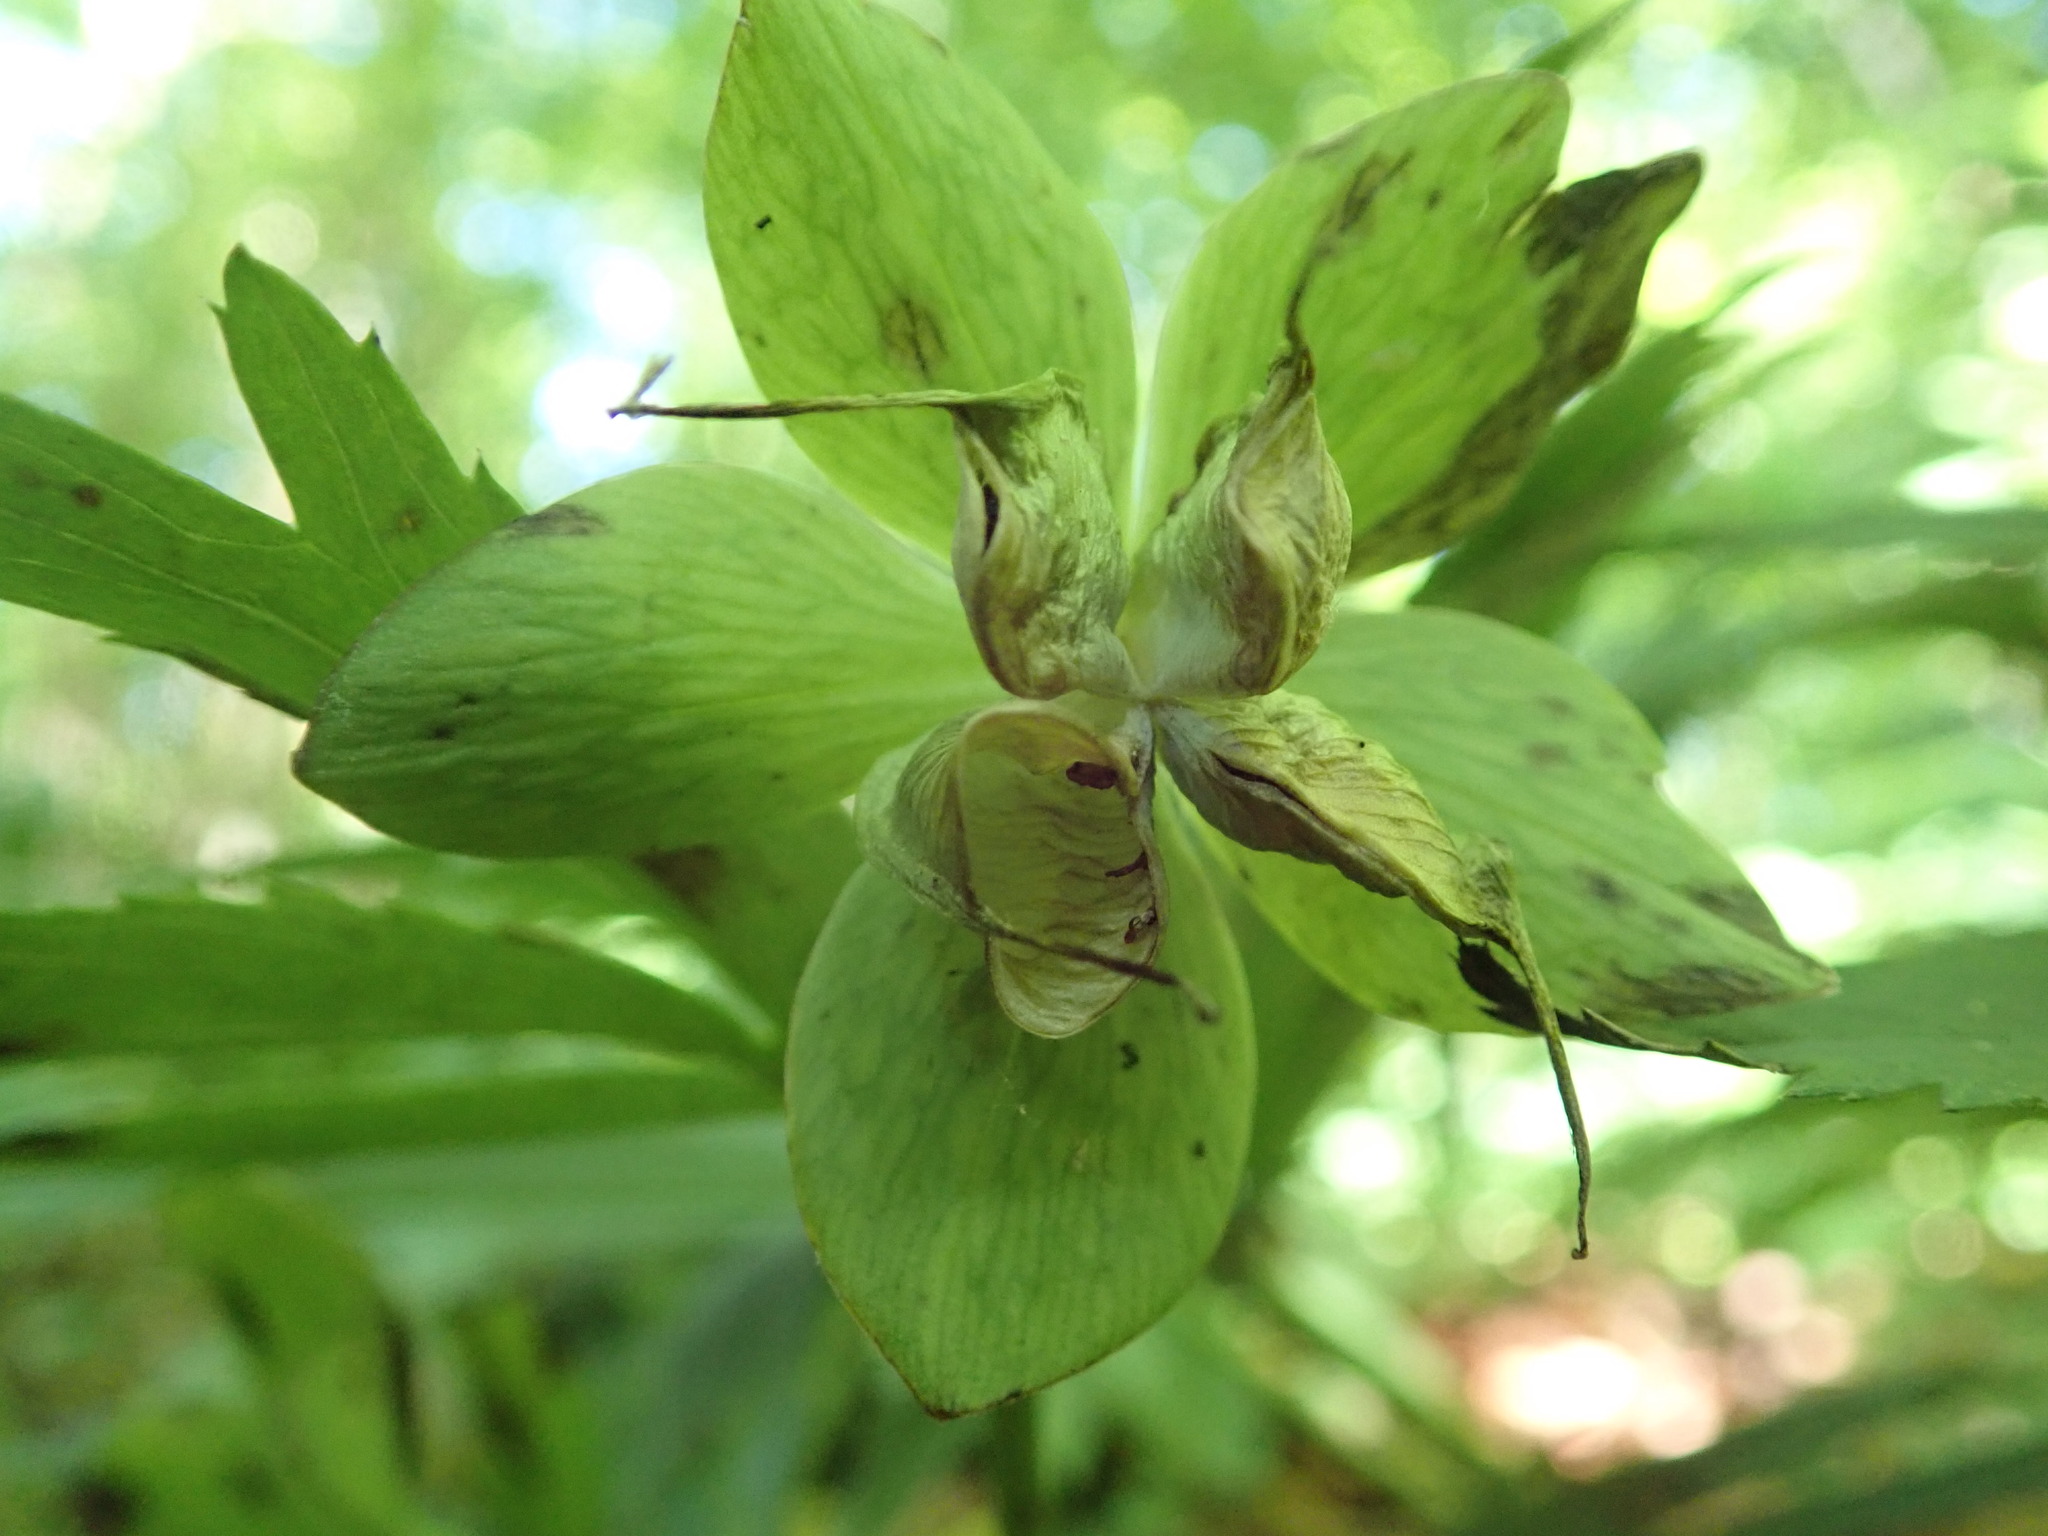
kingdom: Plantae
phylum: Tracheophyta
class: Magnoliopsida
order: Ranunculales
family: Ranunculaceae
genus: Helleborus
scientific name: Helleborus viridis
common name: Green hellebore
